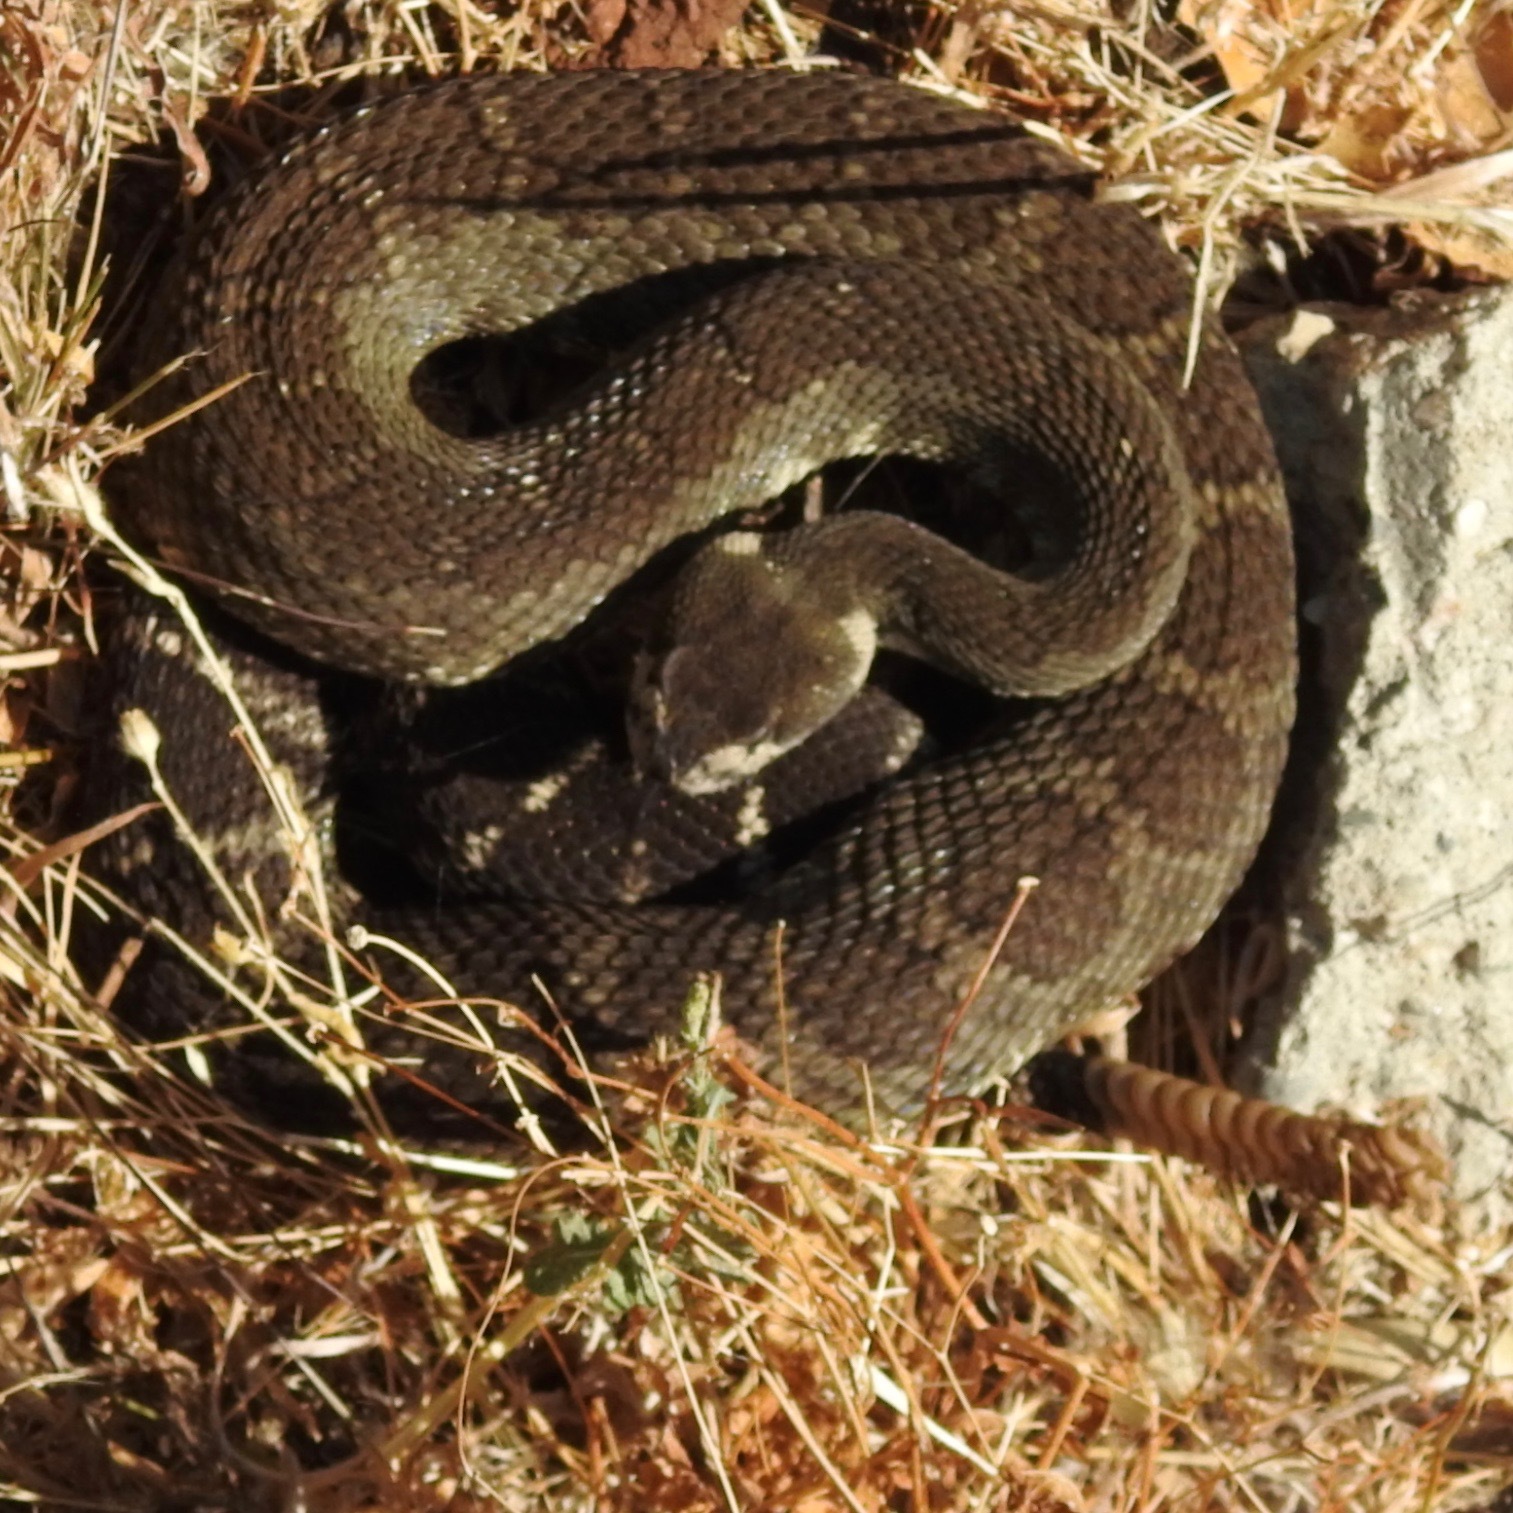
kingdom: Animalia
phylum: Chordata
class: Squamata
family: Viperidae
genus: Crotalus
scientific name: Crotalus oreganus
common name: Abyssus
